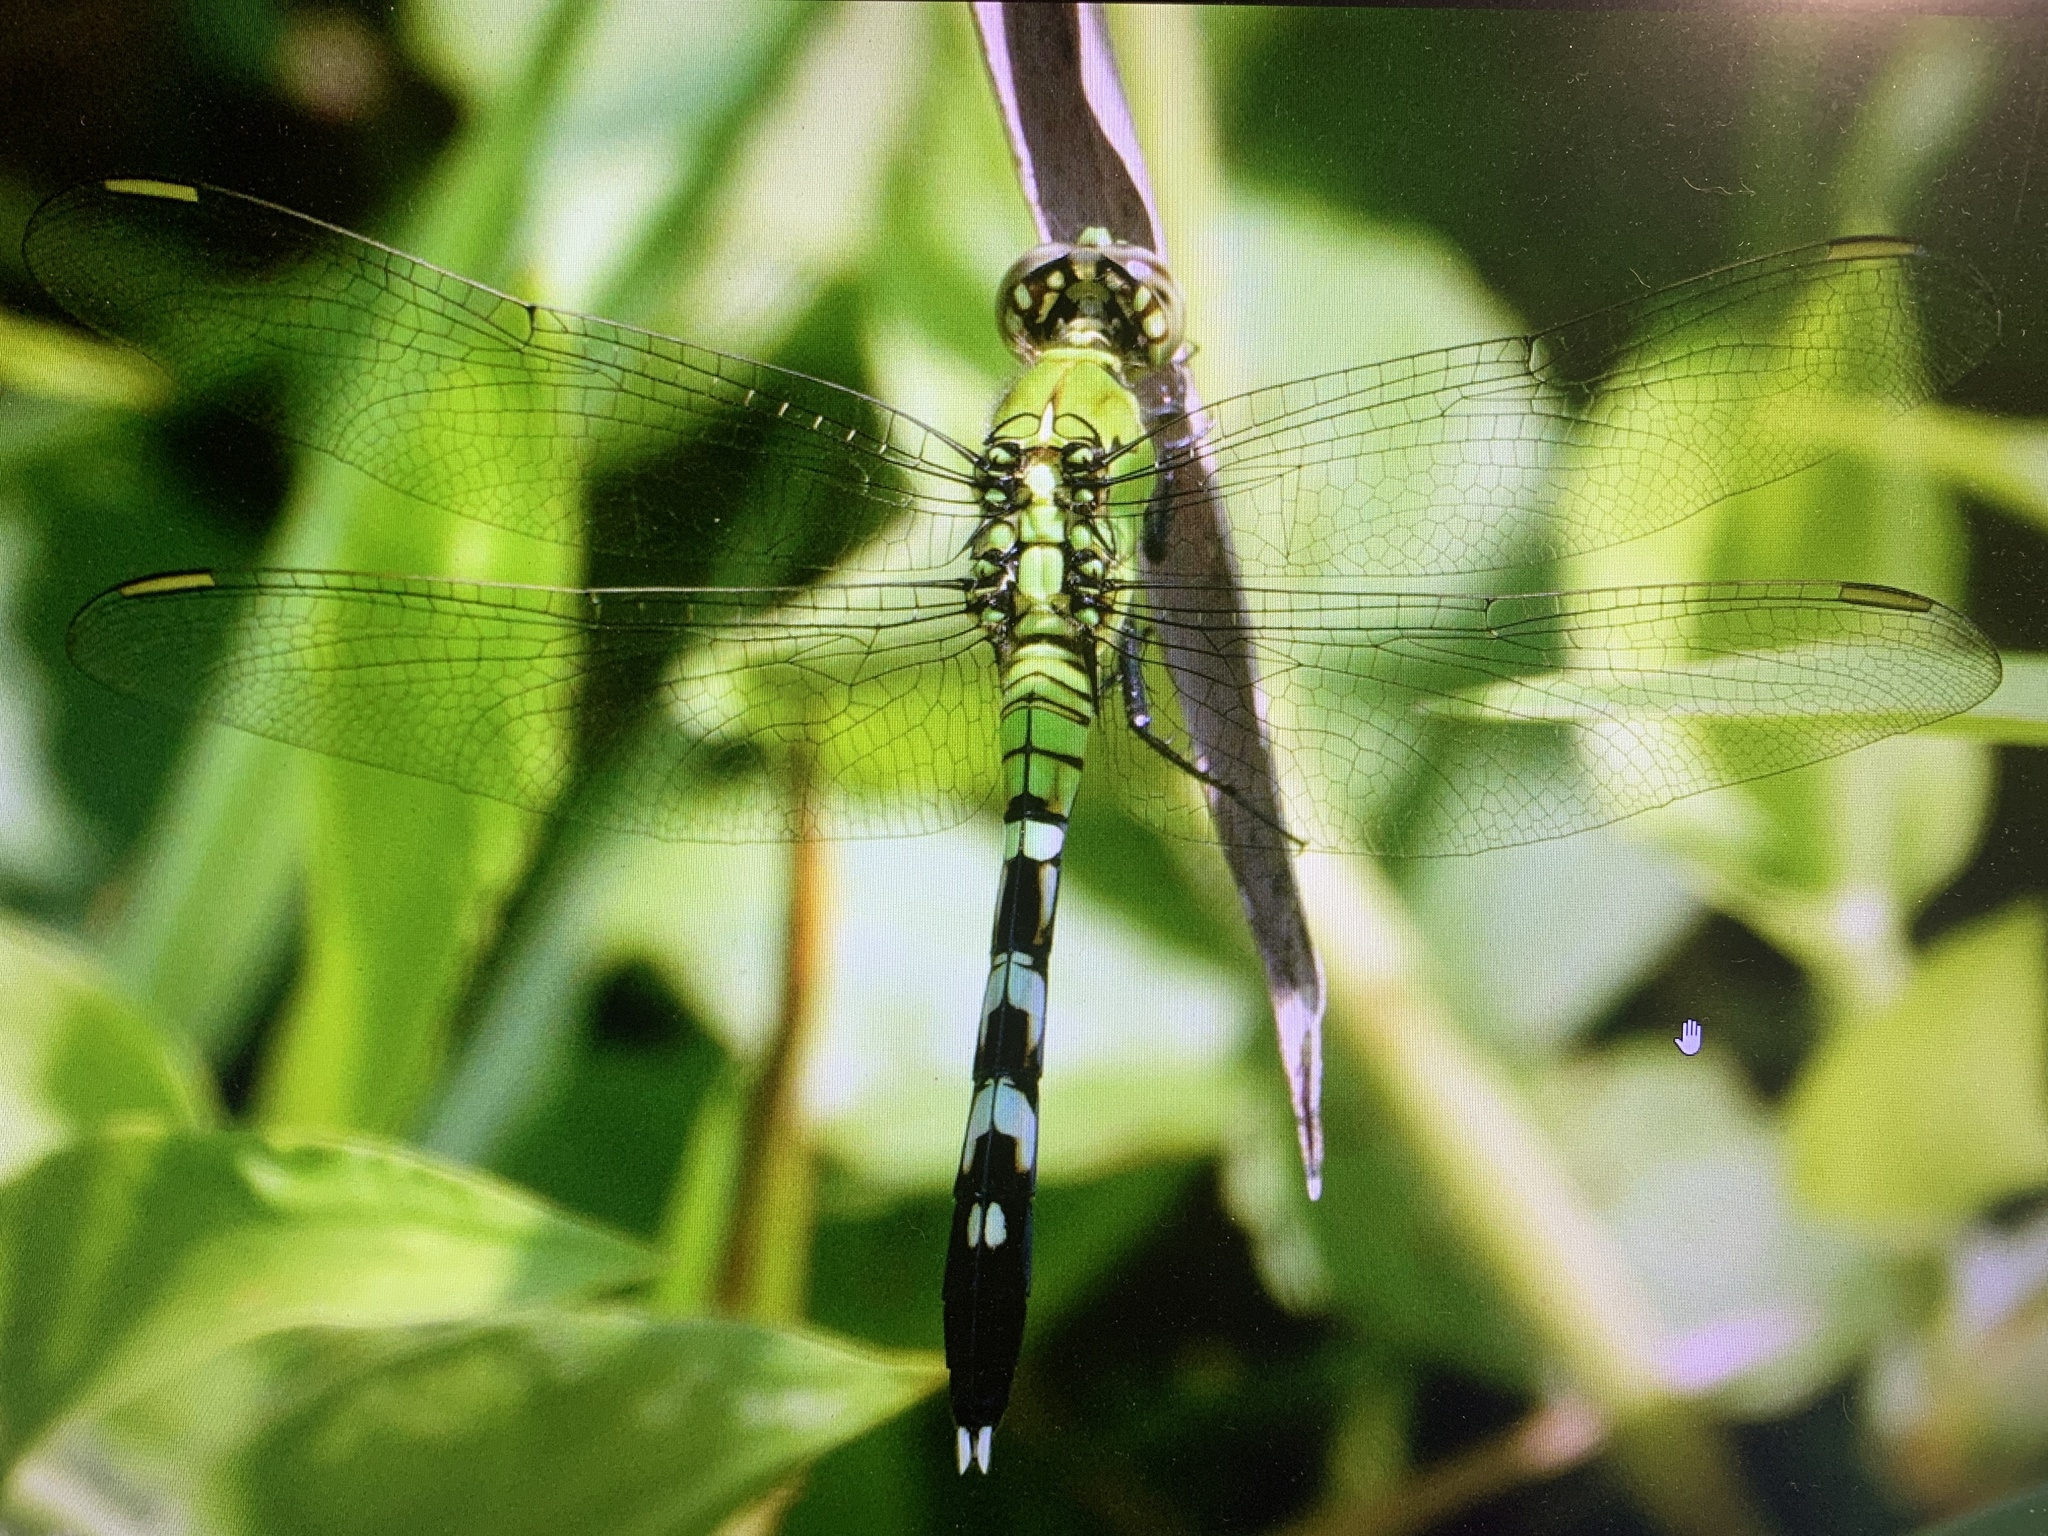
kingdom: Animalia
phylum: Arthropoda
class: Insecta
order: Odonata
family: Libellulidae
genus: Erythemis
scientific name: Erythemis simplicicollis
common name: Eastern pondhawk
